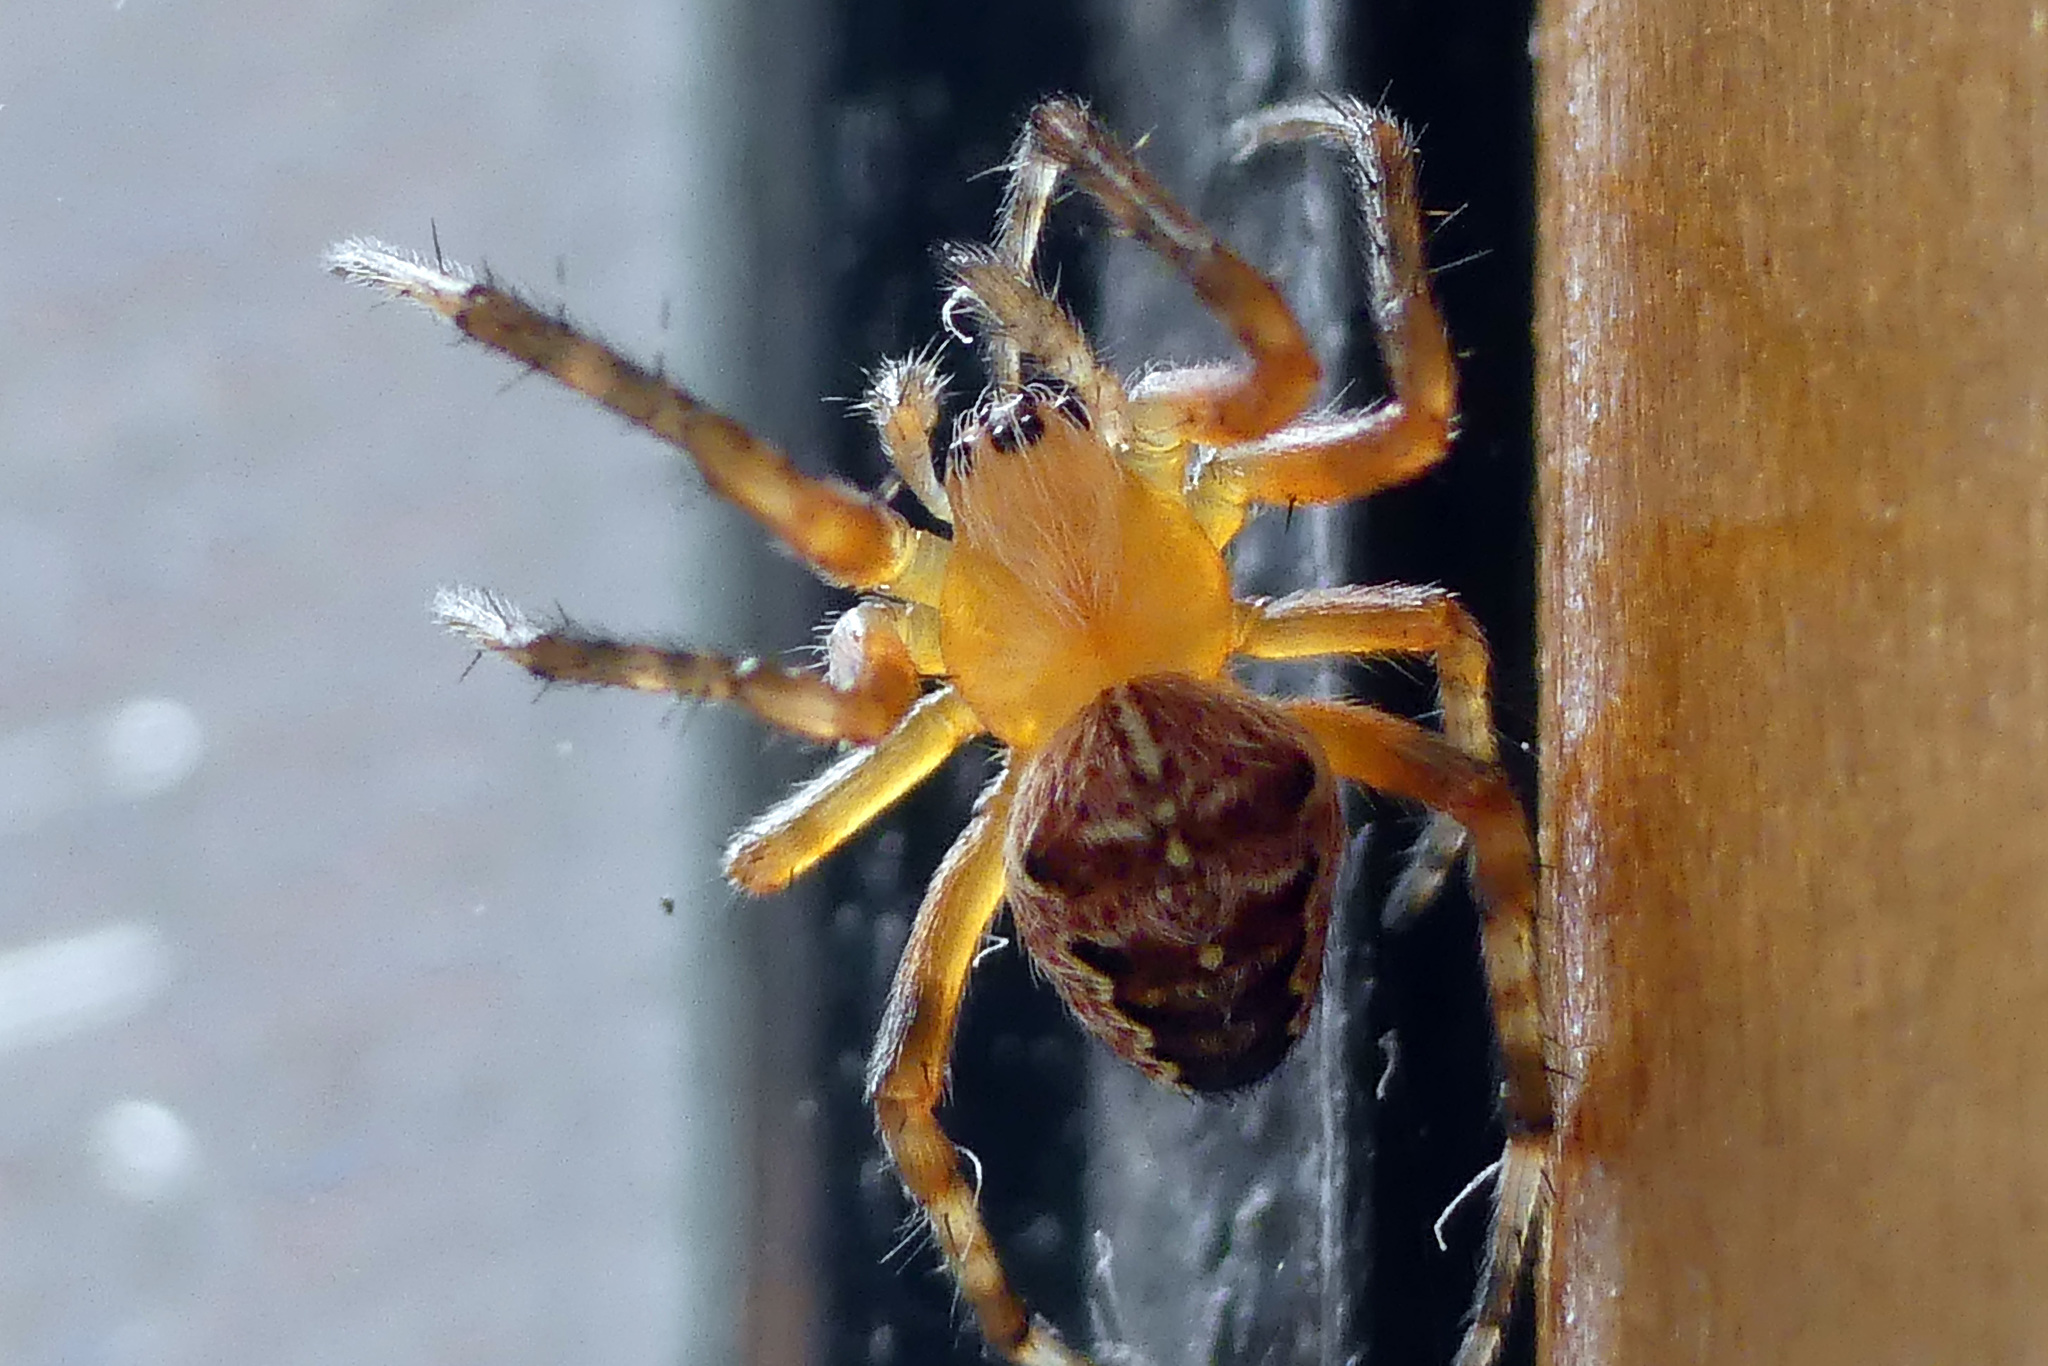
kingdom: Animalia
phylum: Arthropoda
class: Arachnida
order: Araneae
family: Araneidae
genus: Araneus
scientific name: Araneus diadematus
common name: Cross orbweaver
